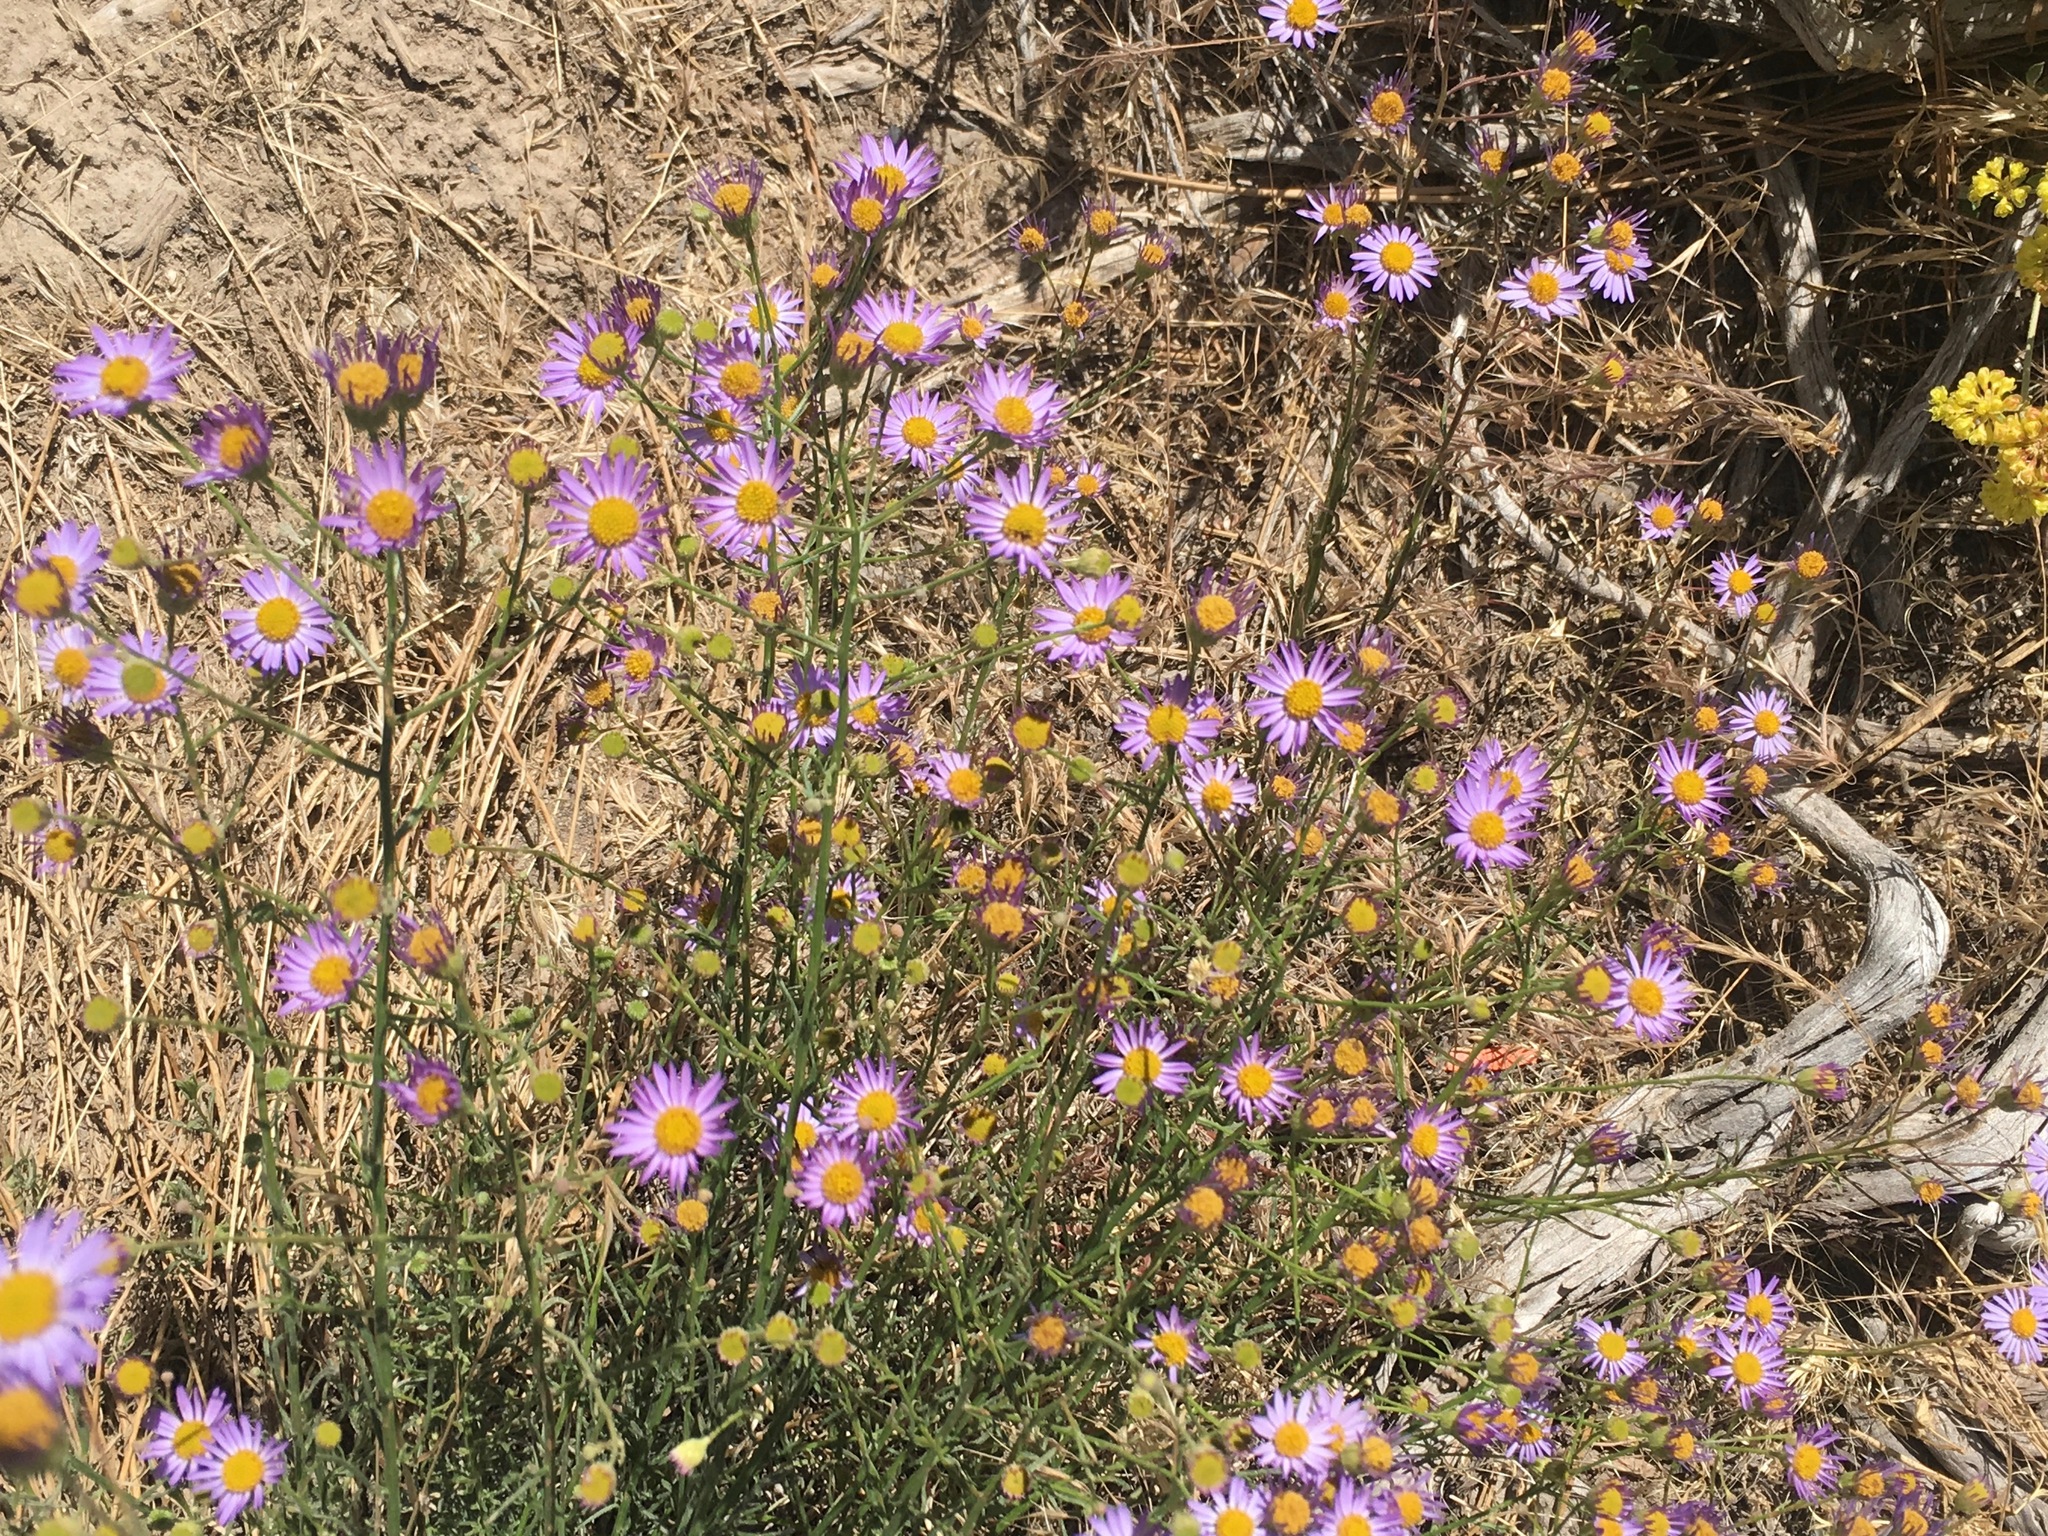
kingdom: Plantae
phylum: Tracheophyta
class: Magnoliopsida
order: Asterales
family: Asteraceae
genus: Erigeron
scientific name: Erigeron foliosus
